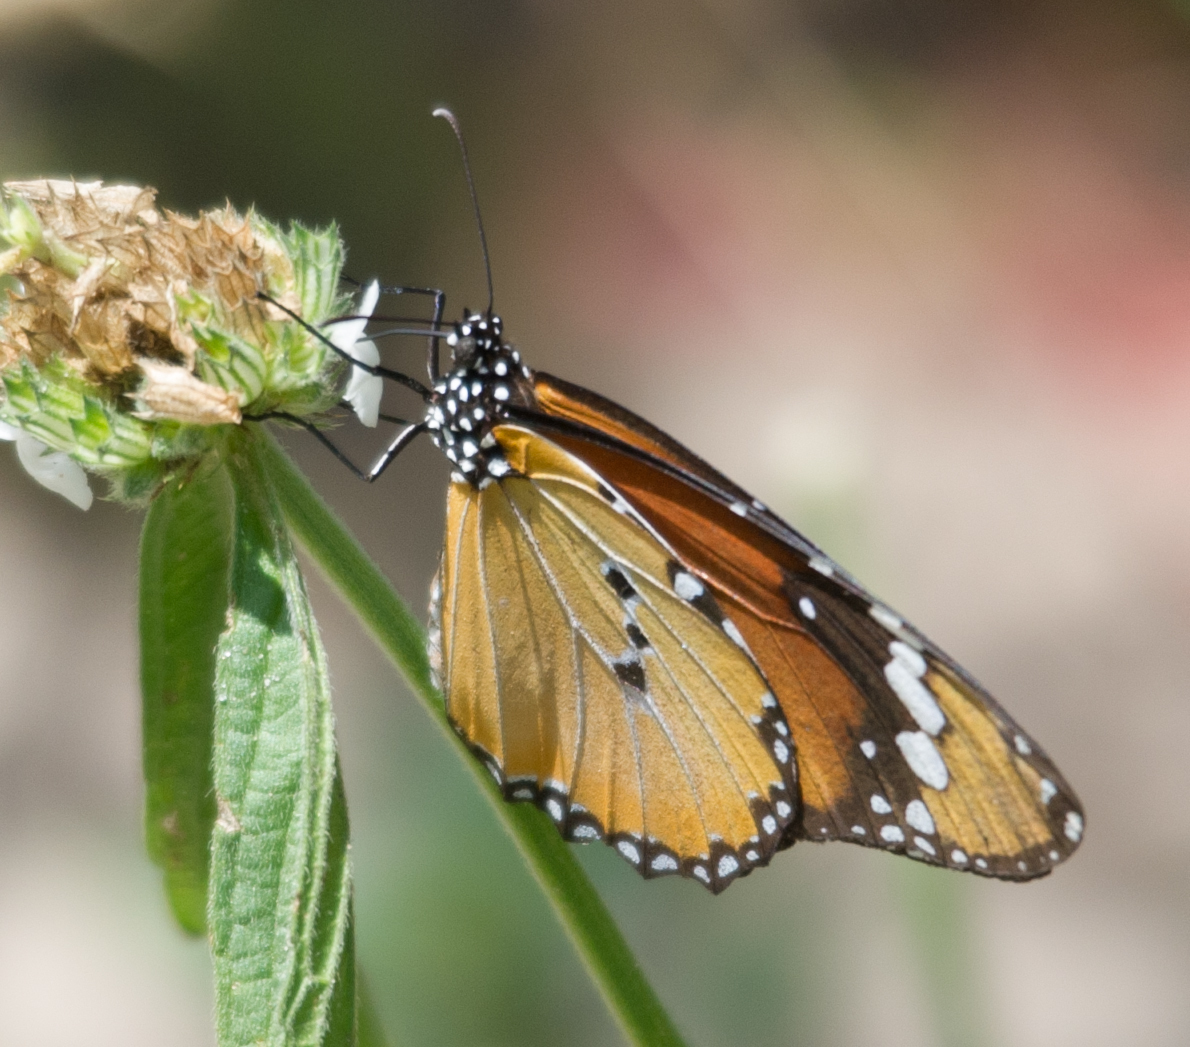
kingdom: Animalia
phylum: Arthropoda
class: Insecta
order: Lepidoptera
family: Nymphalidae
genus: Danaus
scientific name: Danaus chrysippus
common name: Plain tiger
